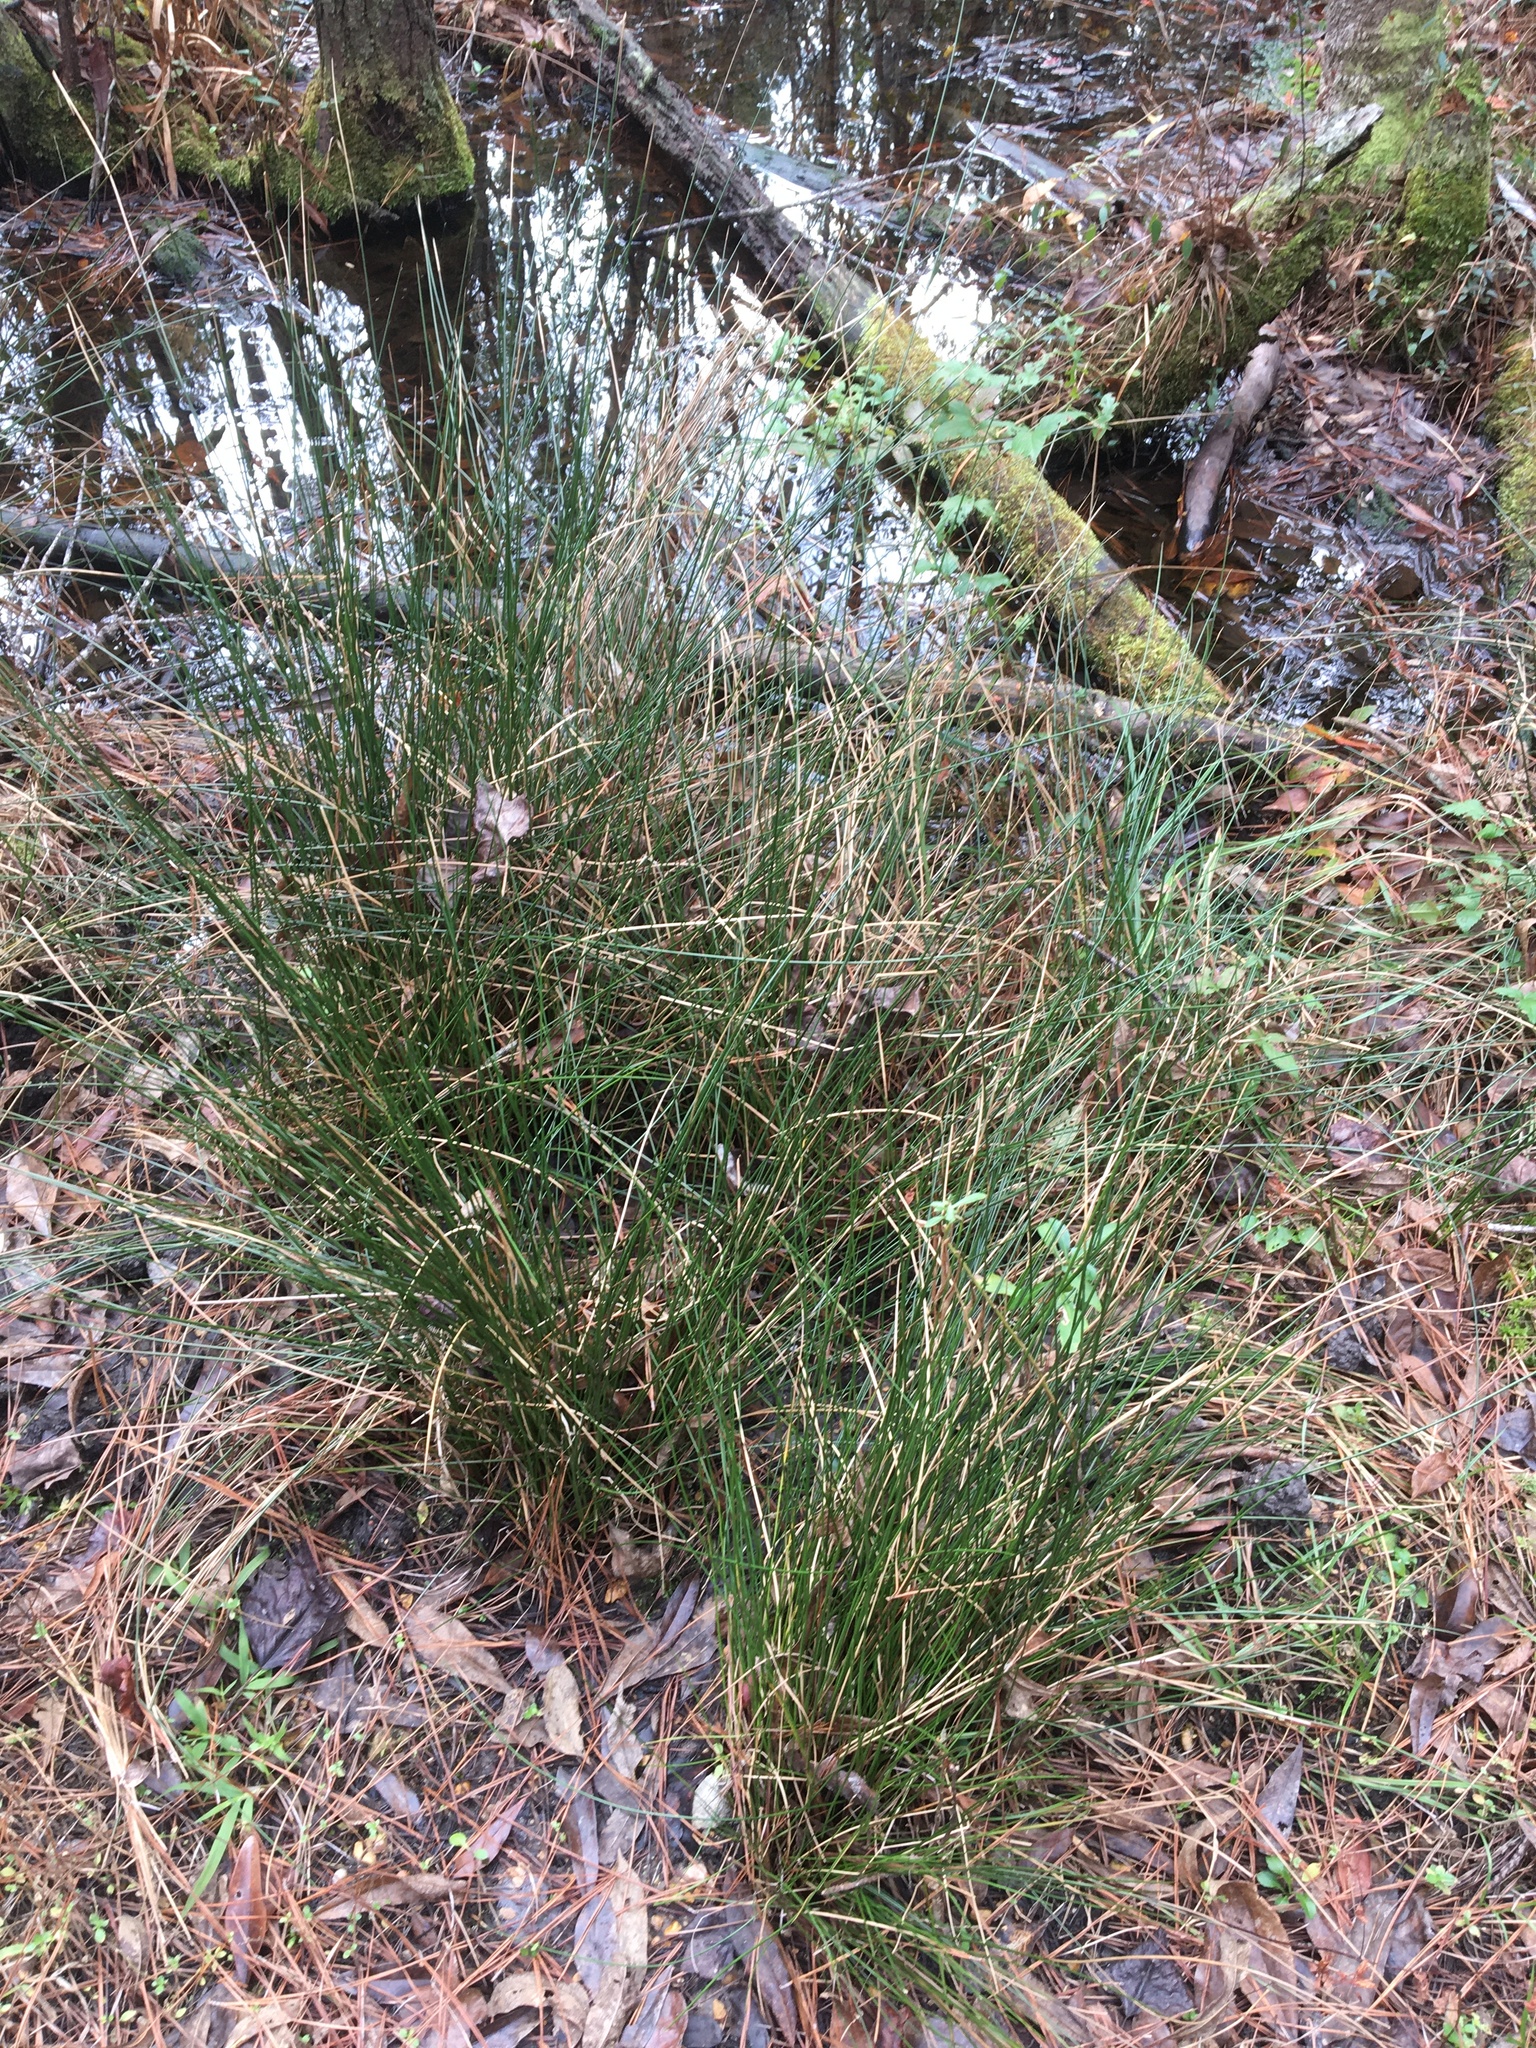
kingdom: Plantae
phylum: Tracheophyta
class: Liliopsida
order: Poales
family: Juncaceae
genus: Juncus
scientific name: Juncus coriaceus
